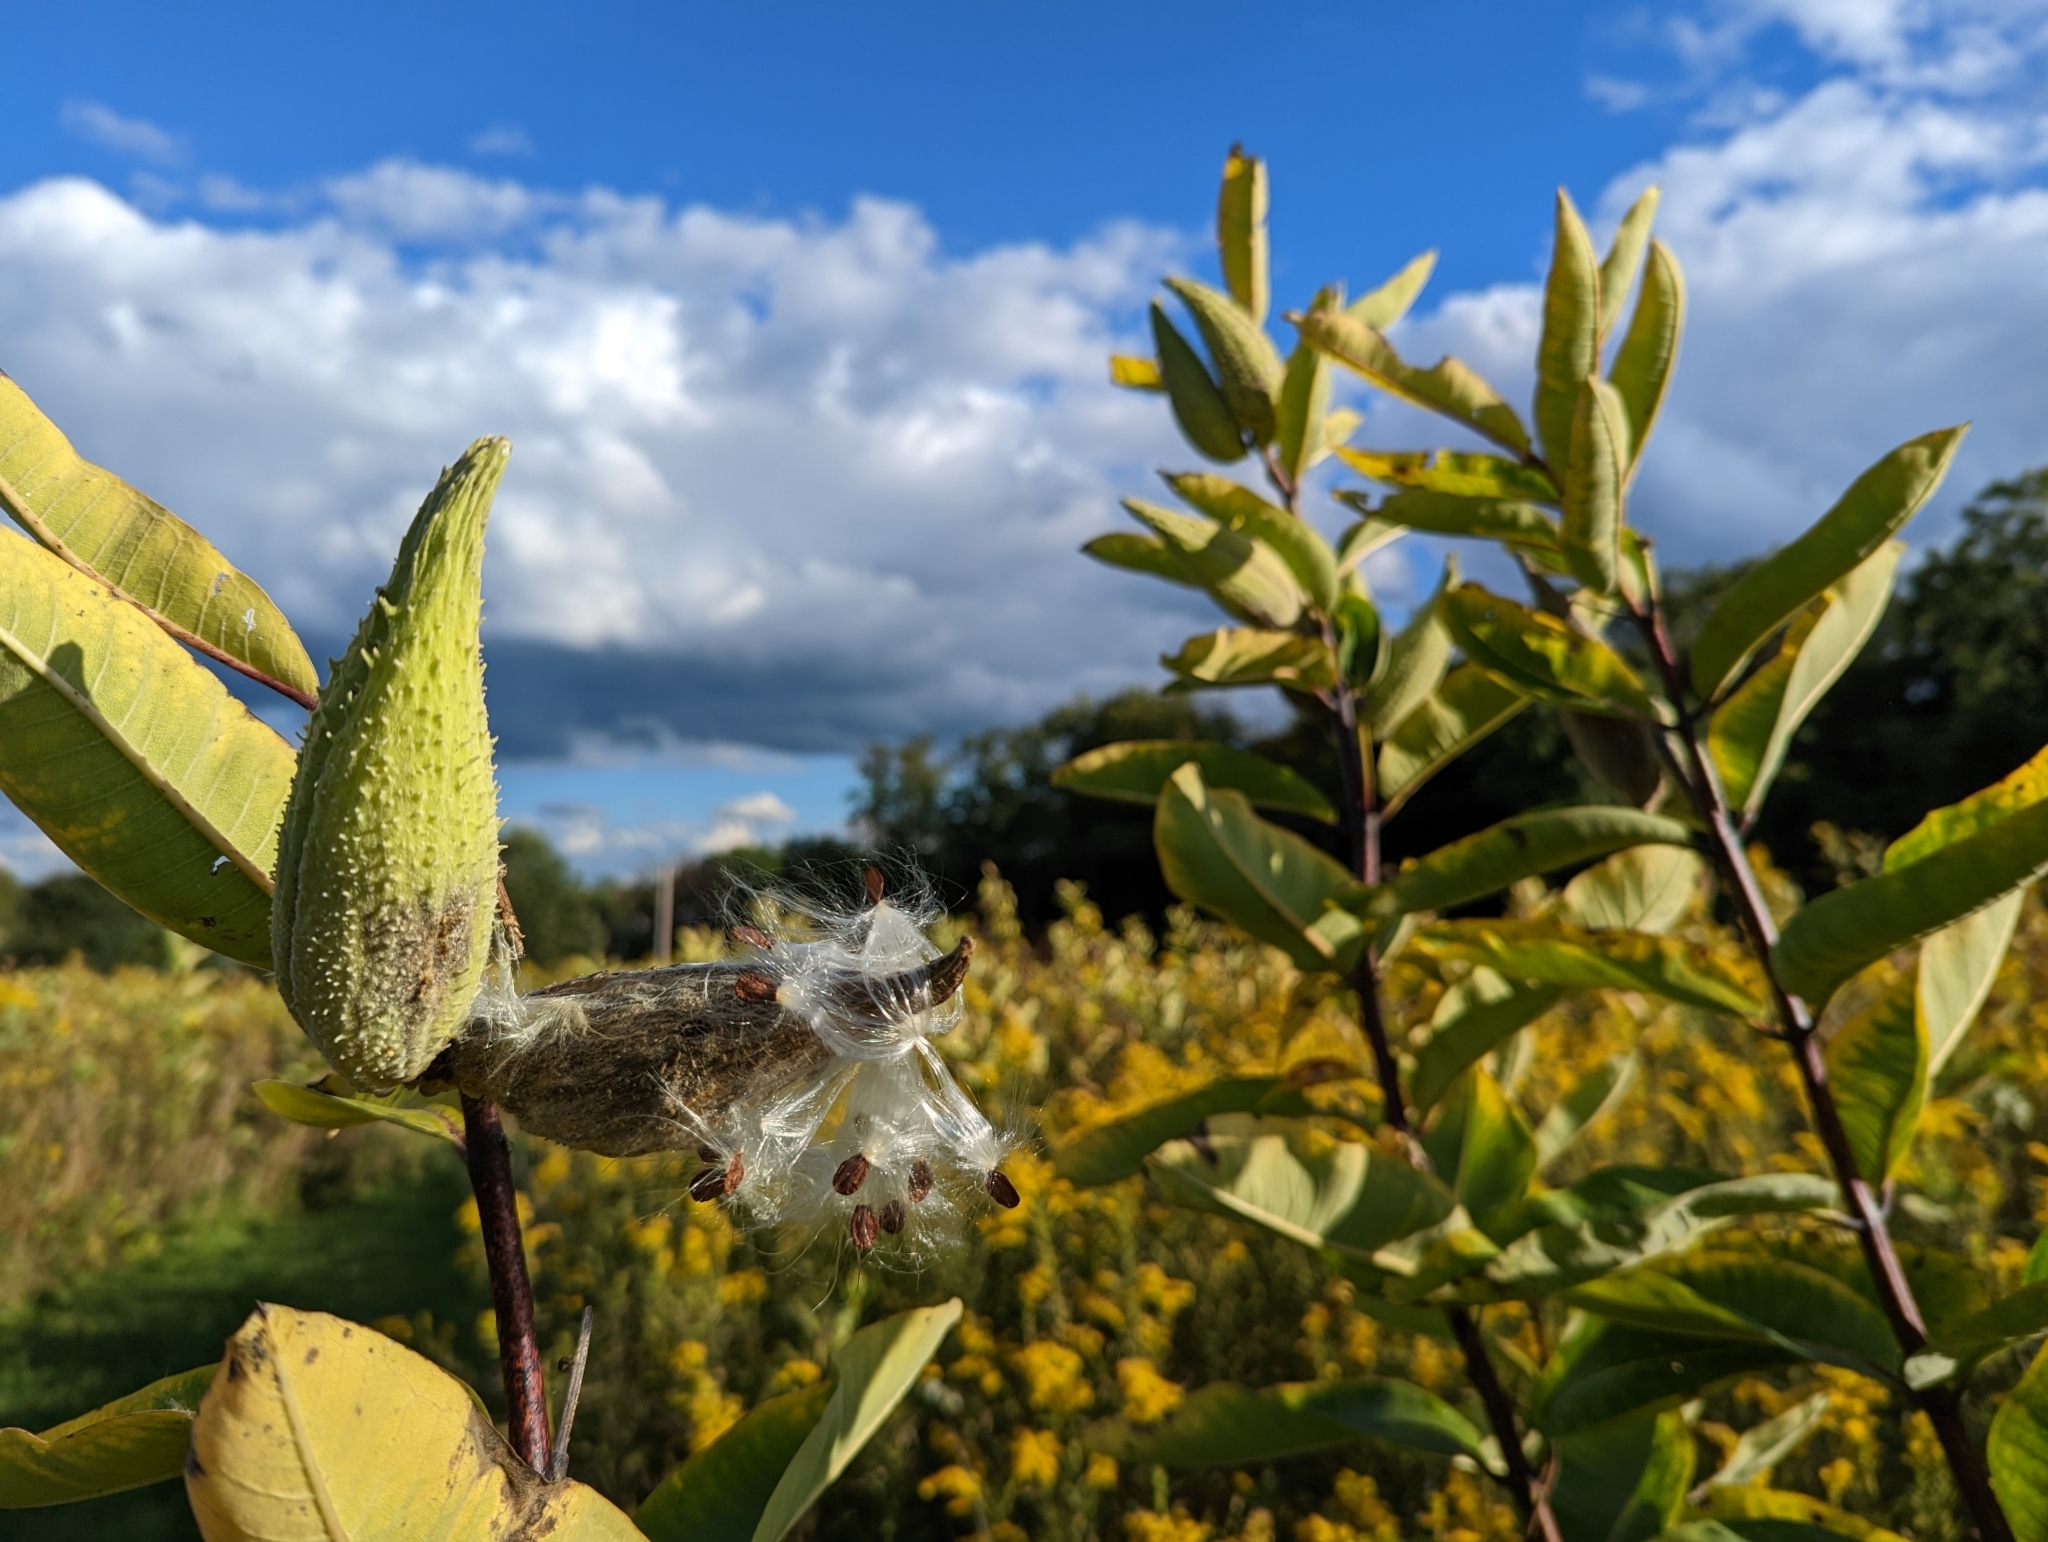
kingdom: Plantae
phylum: Tracheophyta
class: Magnoliopsida
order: Gentianales
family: Apocynaceae
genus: Asclepias
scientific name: Asclepias syriaca
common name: Common milkweed
